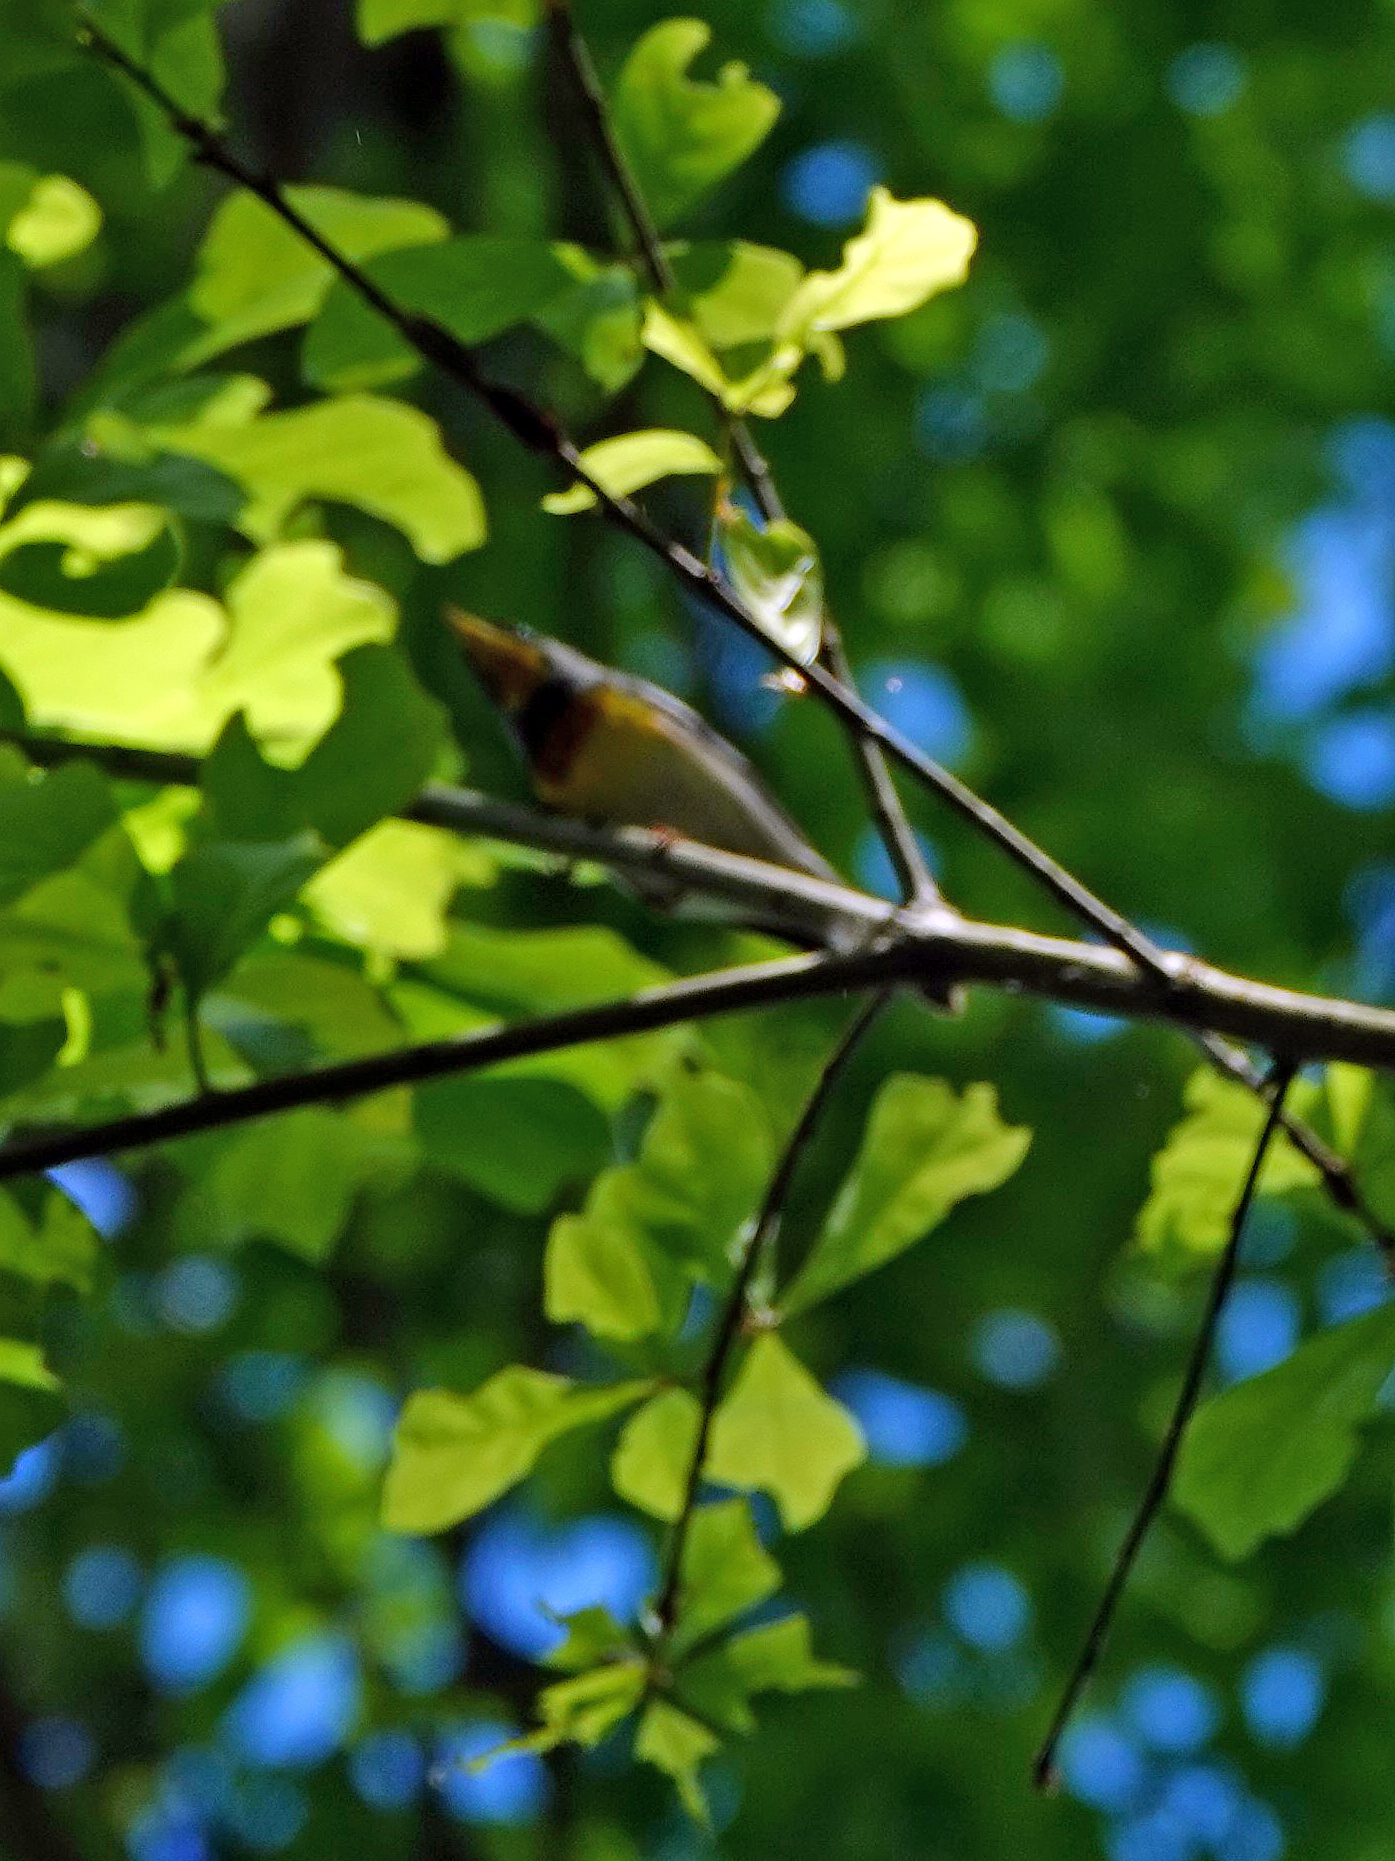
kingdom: Animalia
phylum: Chordata
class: Aves
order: Passeriformes
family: Parulidae
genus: Setophaga
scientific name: Setophaga americana
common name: Northern parula
